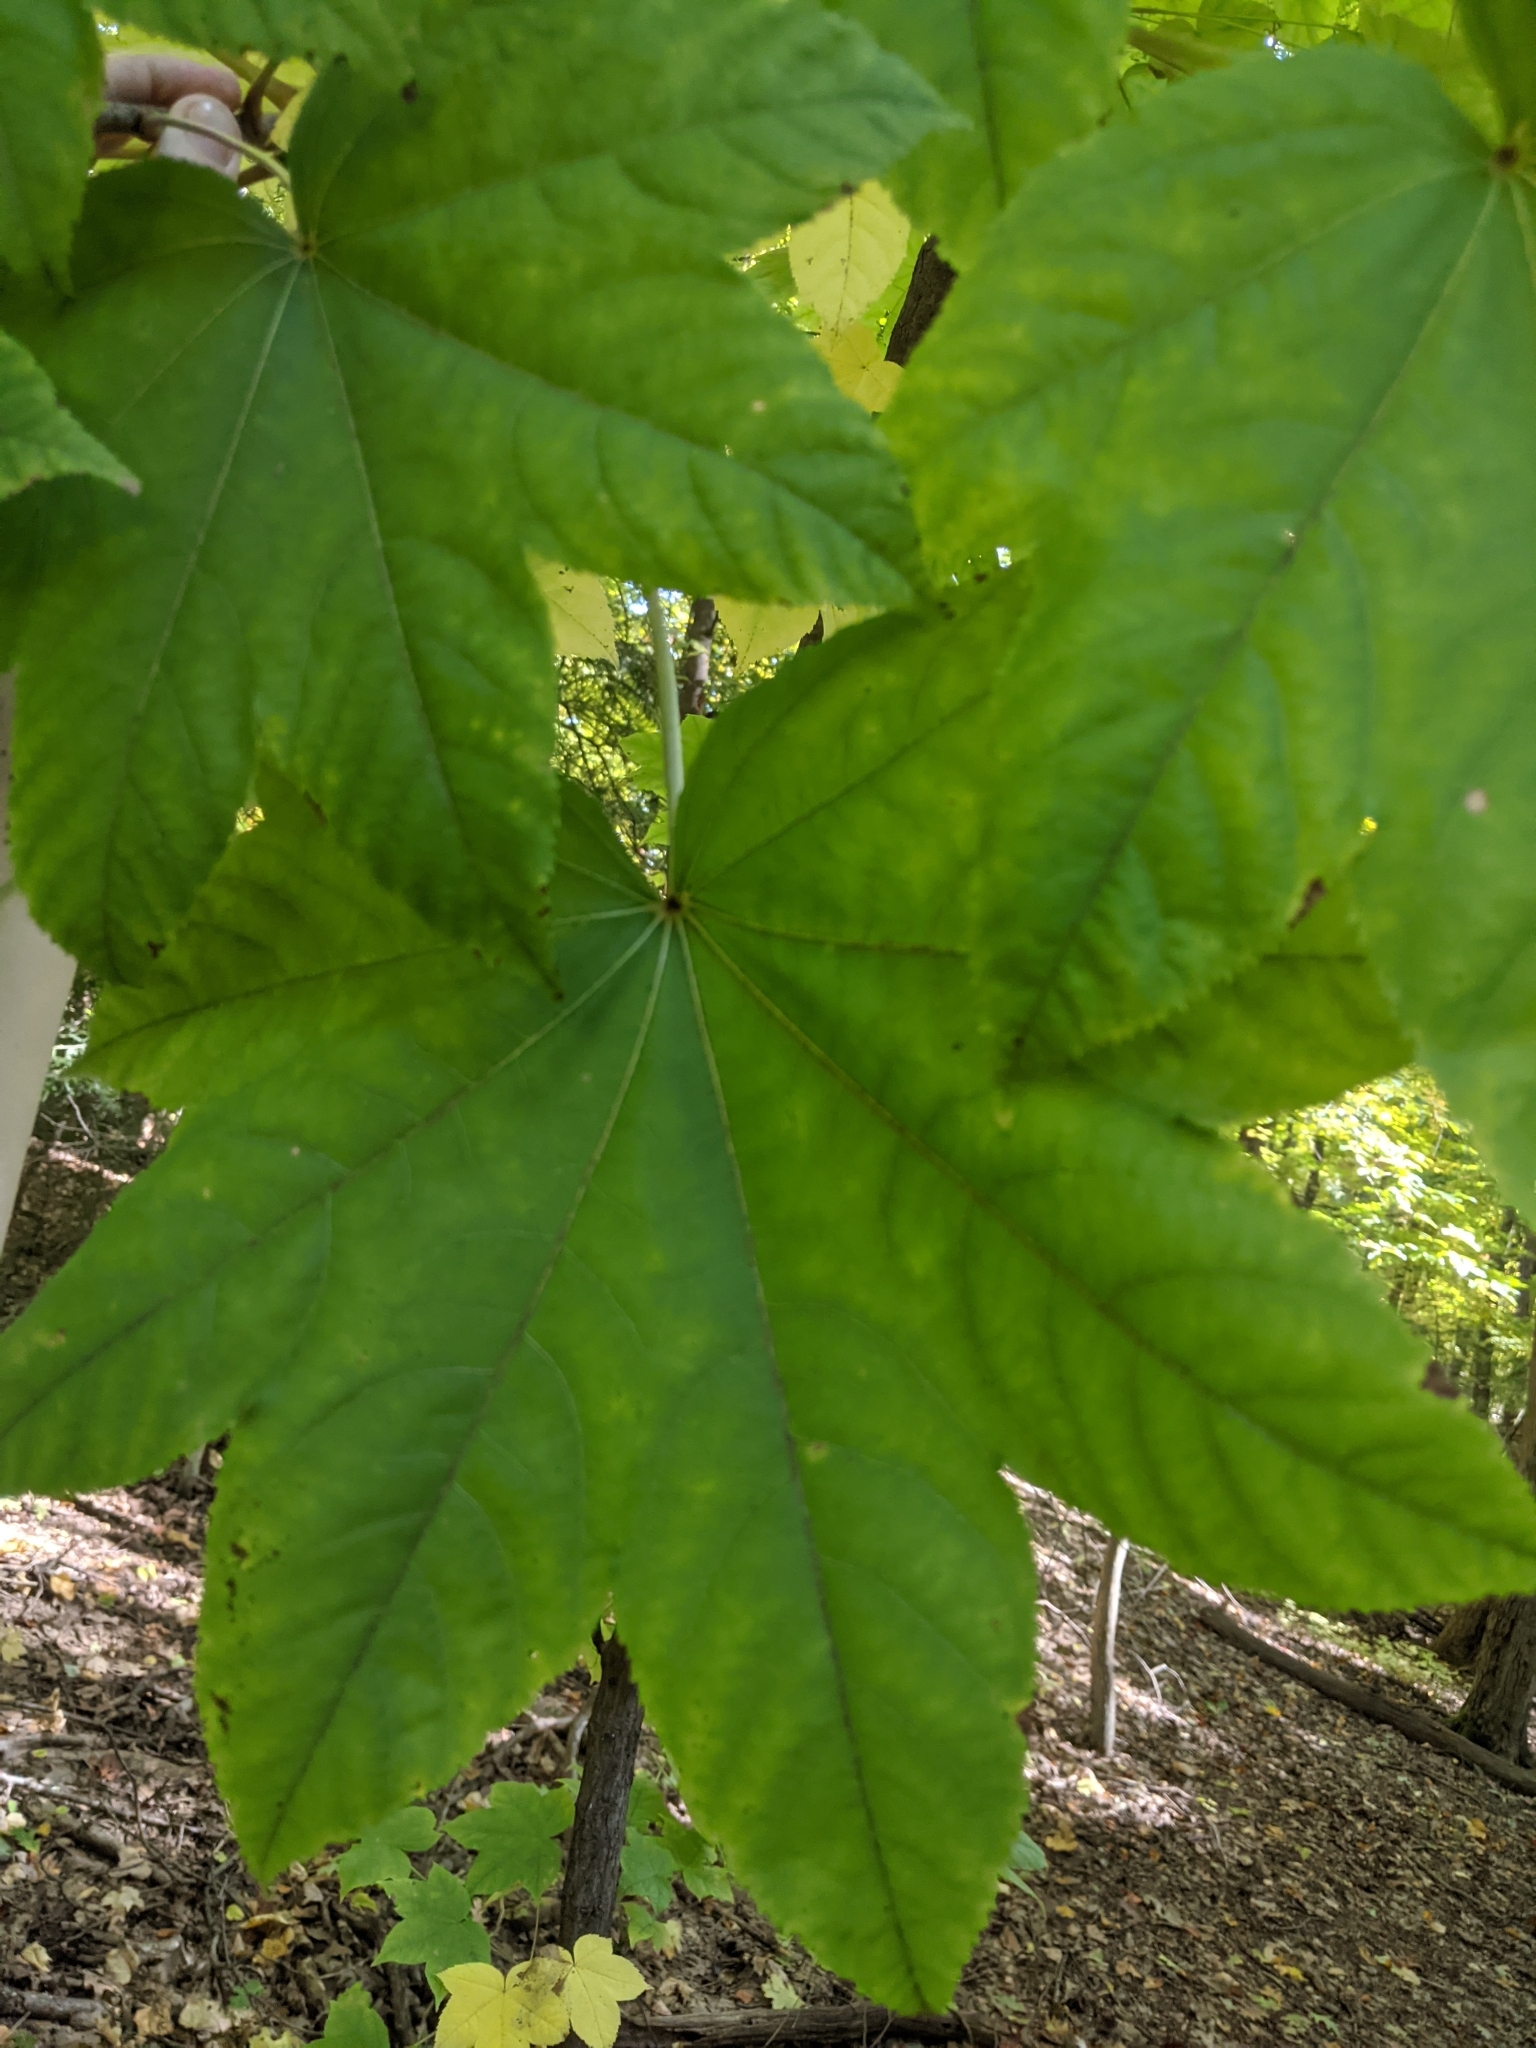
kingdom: Plantae
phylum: Tracheophyta
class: Magnoliopsida
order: Apiales
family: Araliaceae
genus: Kalopanax
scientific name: Kalopanax septemlobus
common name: Castor aralia
